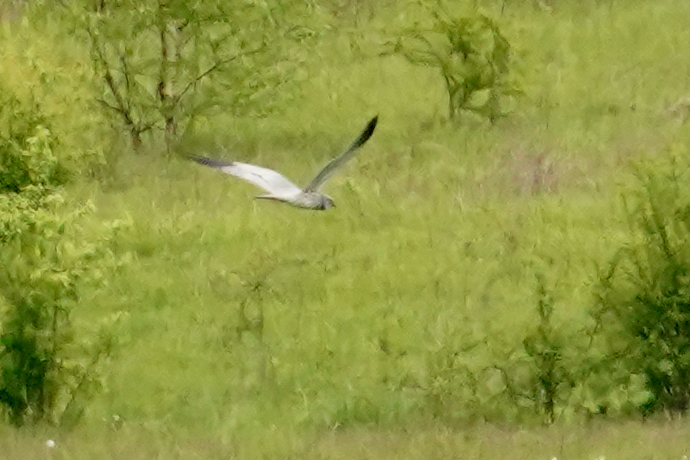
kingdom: Animalia
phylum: Chordata
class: Aves
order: Accipitriformes
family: Accipitridae
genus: Circus
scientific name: Circus pygargus
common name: Montagu's harrier
